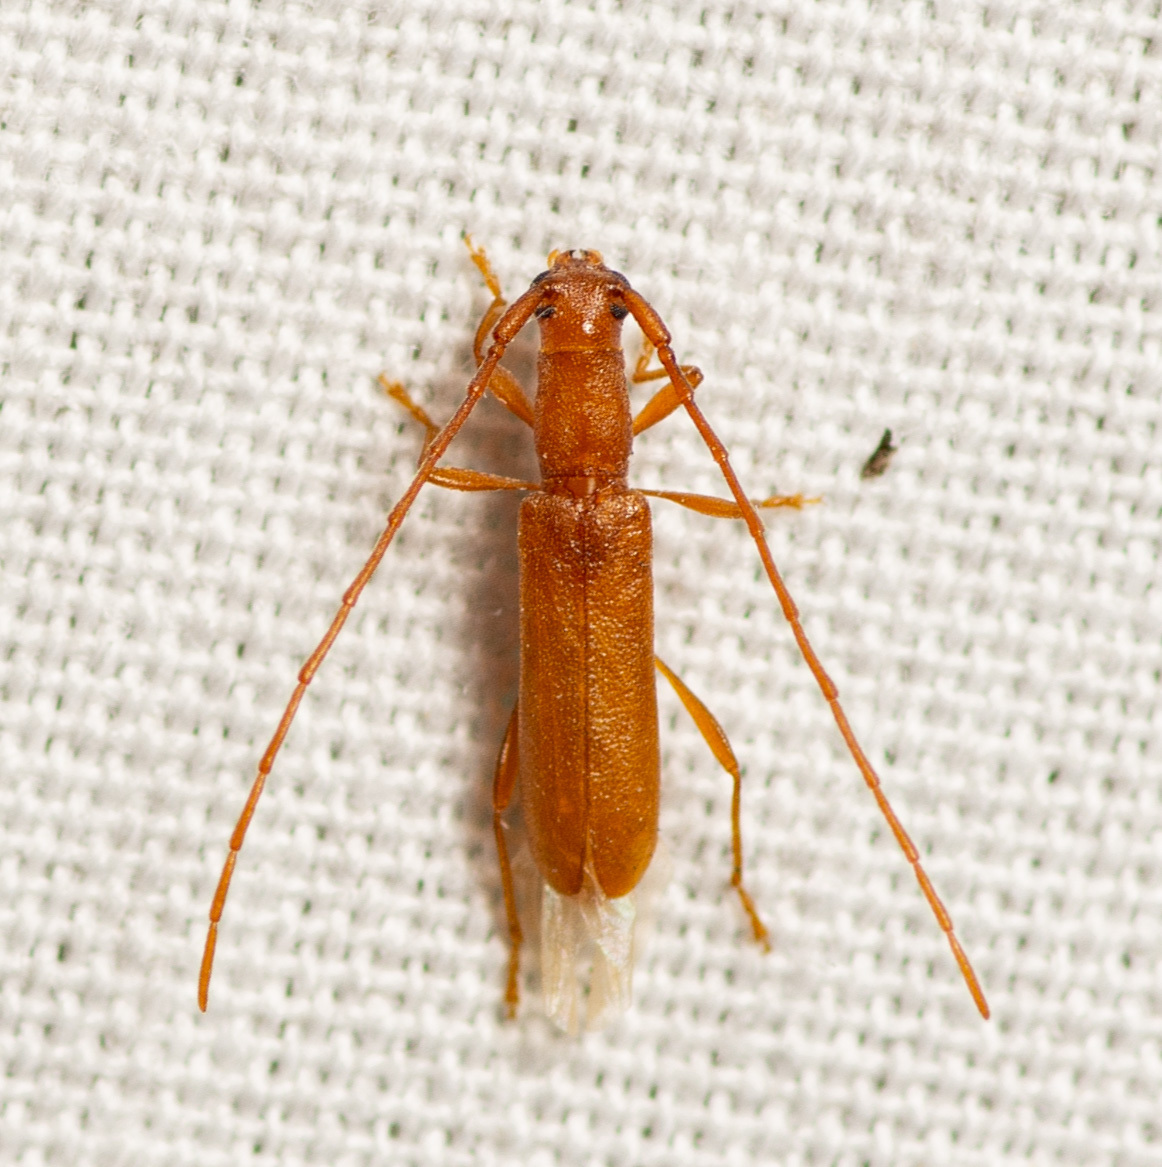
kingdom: Animalia
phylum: Arthropoda
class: Insecta
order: Coleoptera
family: Cerambycidae
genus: Hypexilis
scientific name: Hypexilis pallida
